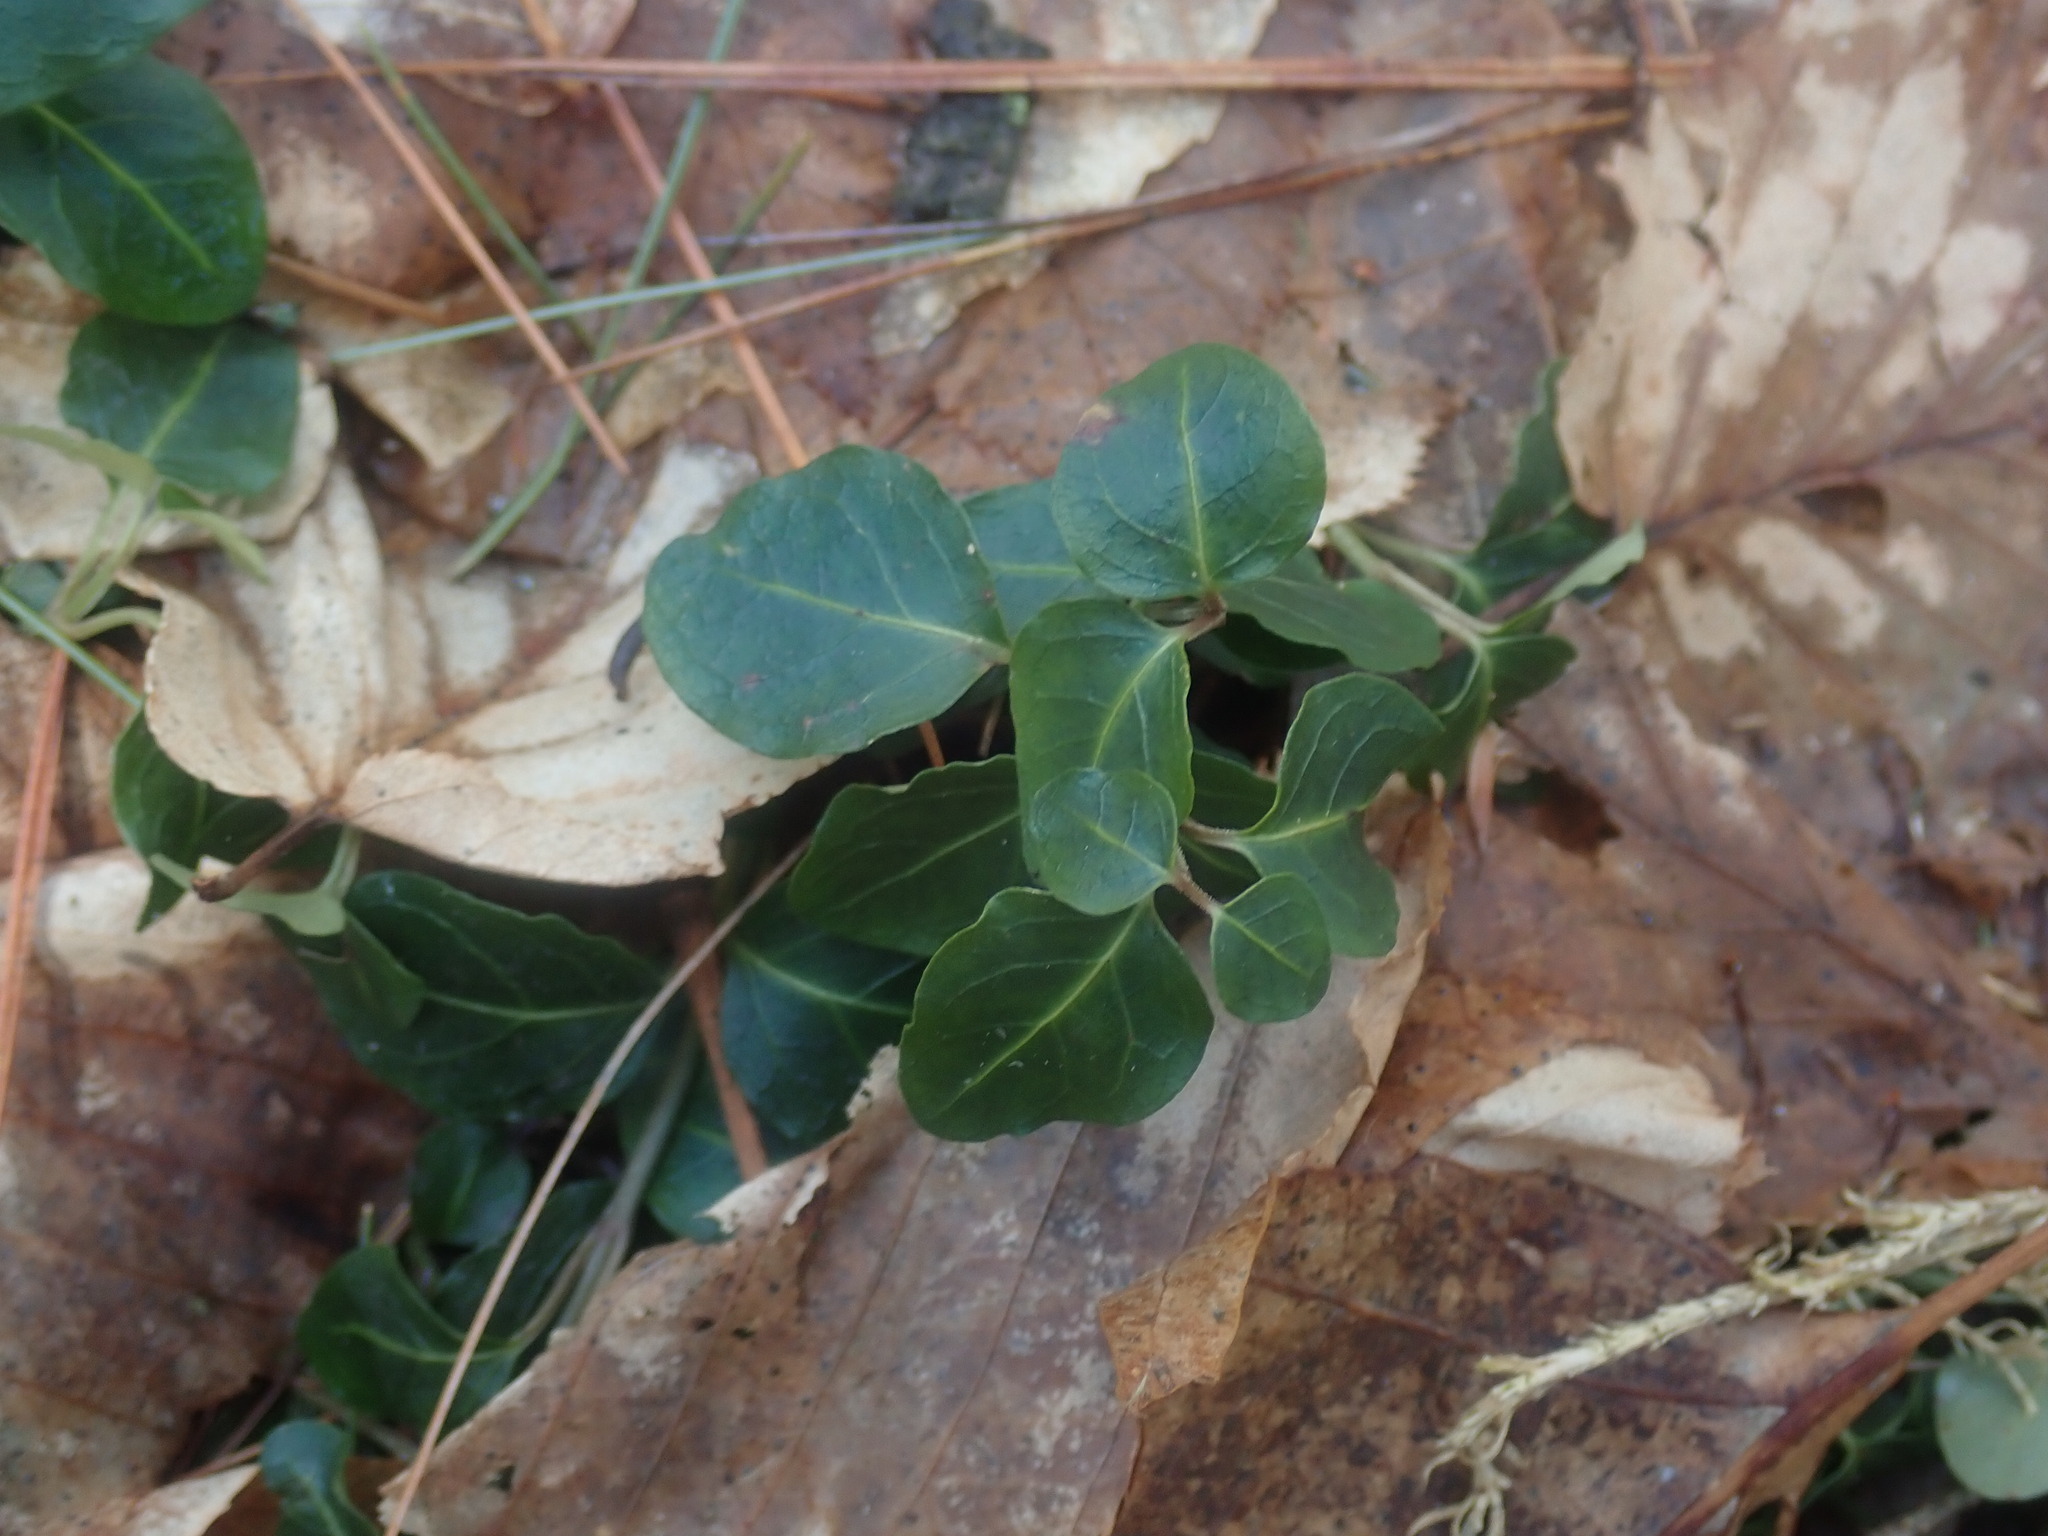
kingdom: Plantae
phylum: Tracheophyta
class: Magnoliopsida
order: Gentianales
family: Rubiaceae
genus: Mitchella
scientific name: Mitchella repens
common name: Partridge-berry
